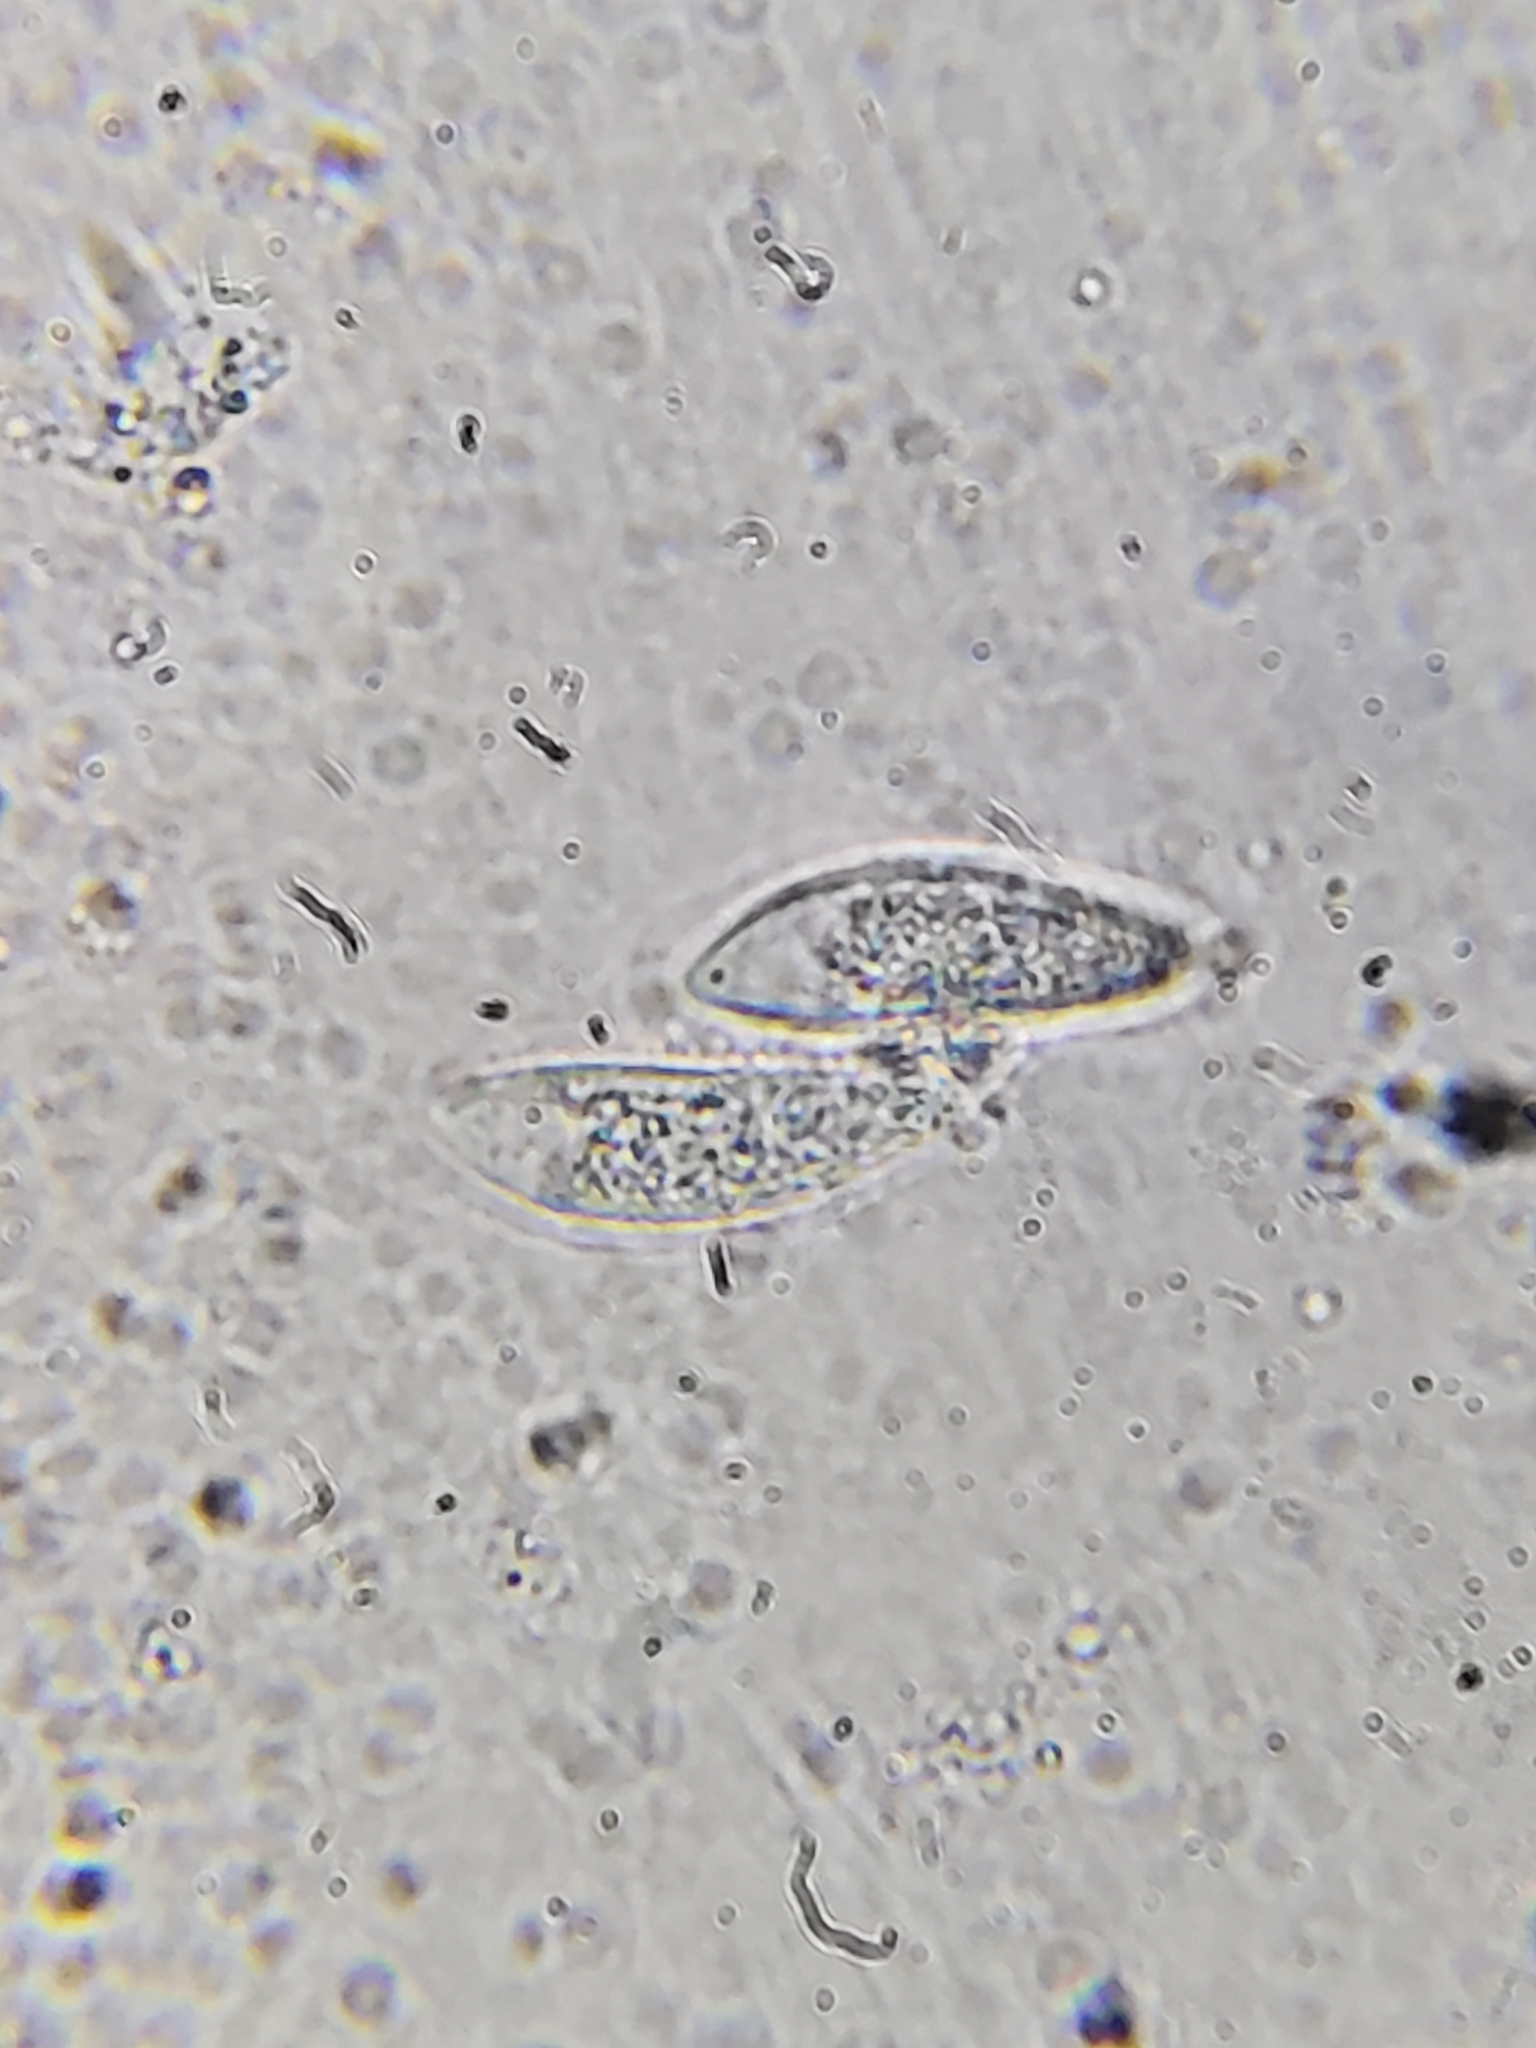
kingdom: Fungi
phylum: Ascomycota
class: Leotiomycetes
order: Rhytismatales
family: Rhytismataceae
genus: Macroderma
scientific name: Macroderma curtisii
